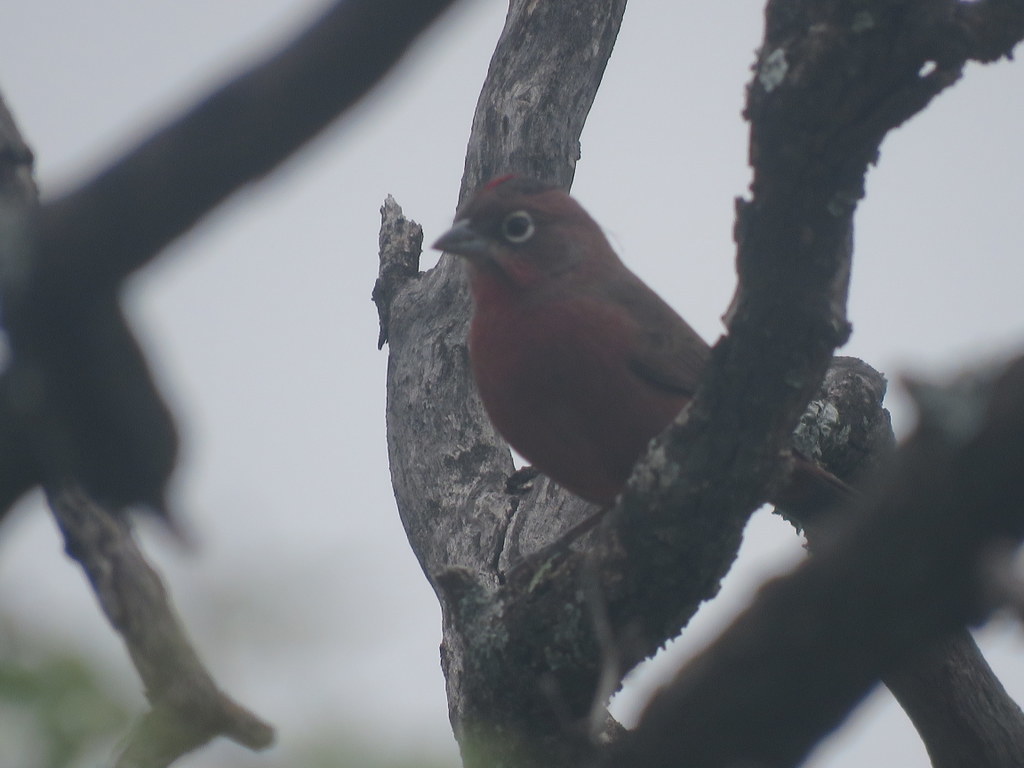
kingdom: Animalia
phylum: Chordata
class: Aves
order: Passeriformes
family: Thraupidae
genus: Coryphospingus
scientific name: Coryphospingus cucullatus
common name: Red pileated finch
